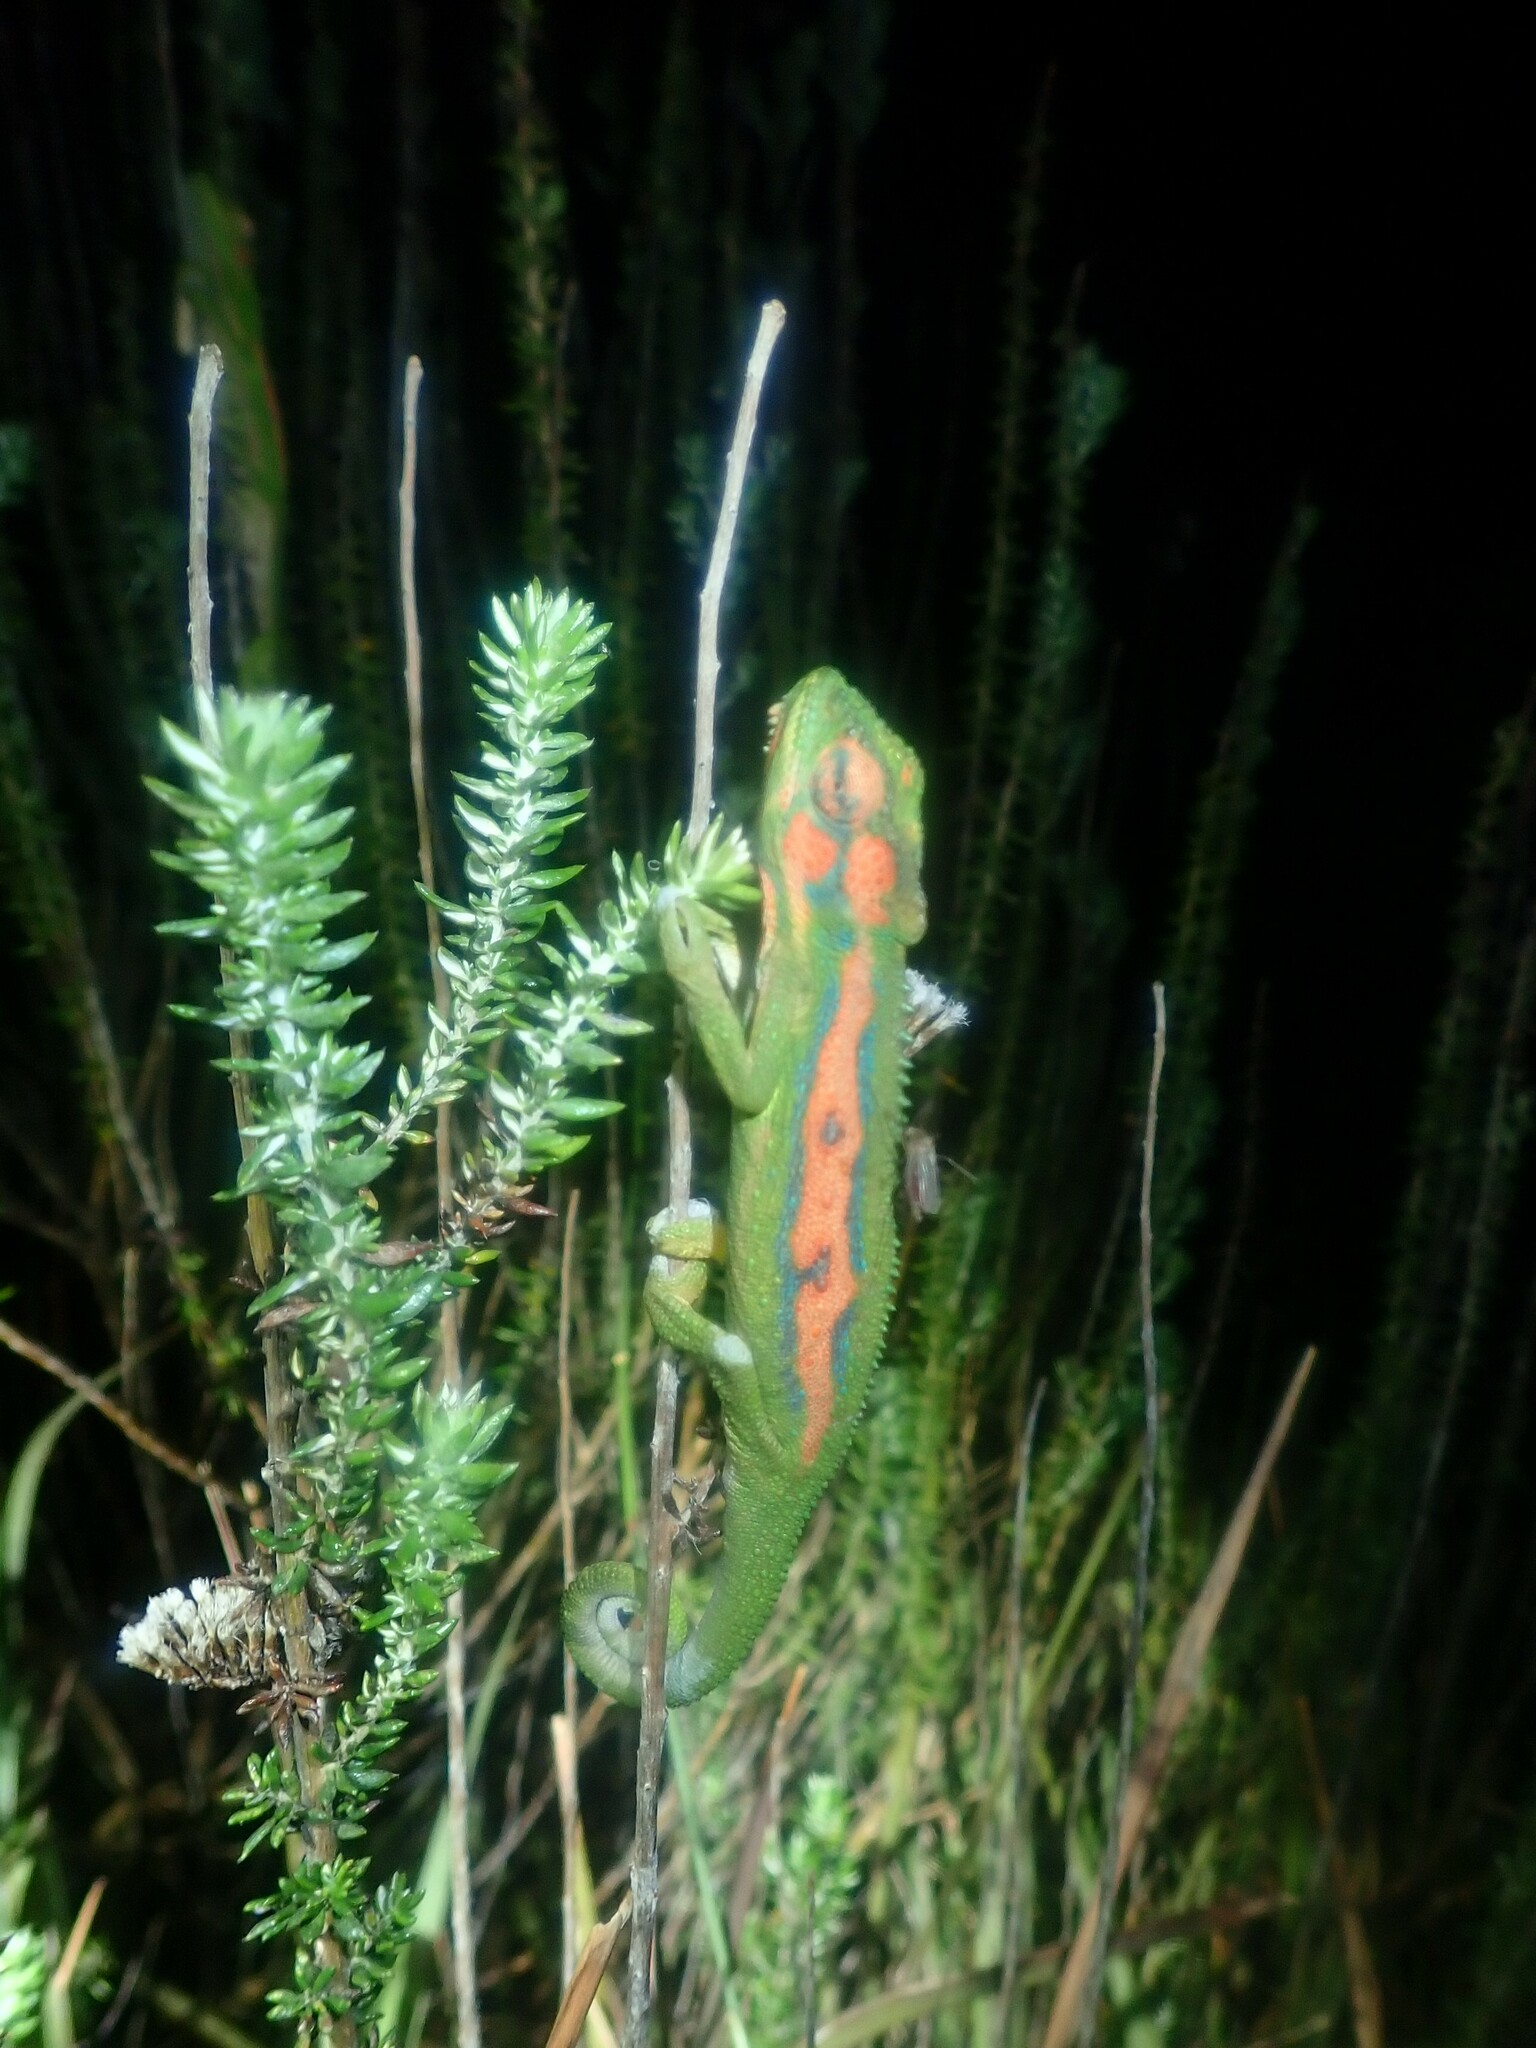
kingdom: Animalia
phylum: Chordata
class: Squamata
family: Chamaeleonidae
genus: Bradypodion
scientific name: Bradypodion pumilum
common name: Cape dwarf chameleon
